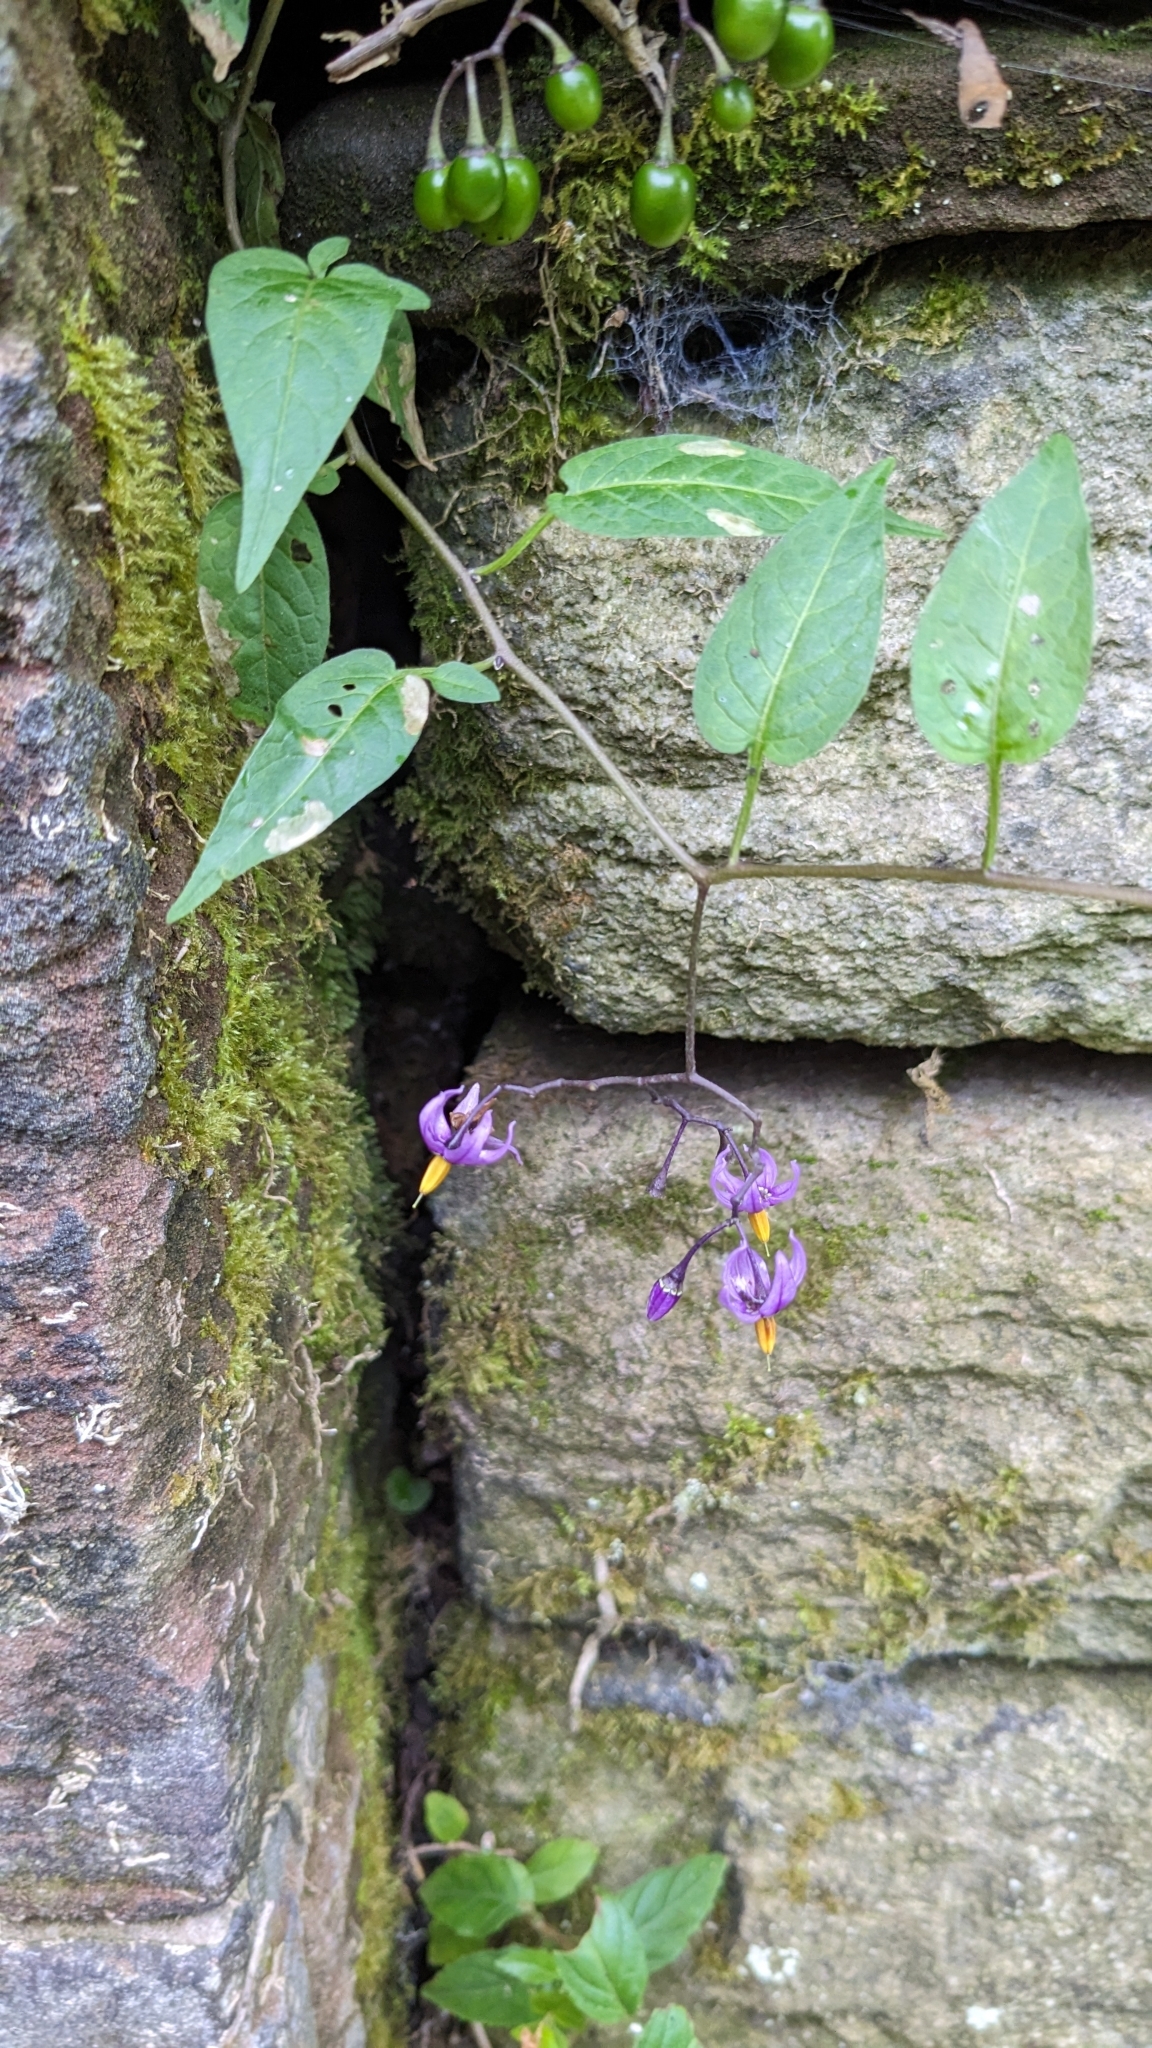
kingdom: Plantae
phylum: Tracheophyta
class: Magnoliopsida
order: Solanales
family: Solanaceae
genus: Solanum
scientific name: Solanum dulcamara
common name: Climbing nightshade
